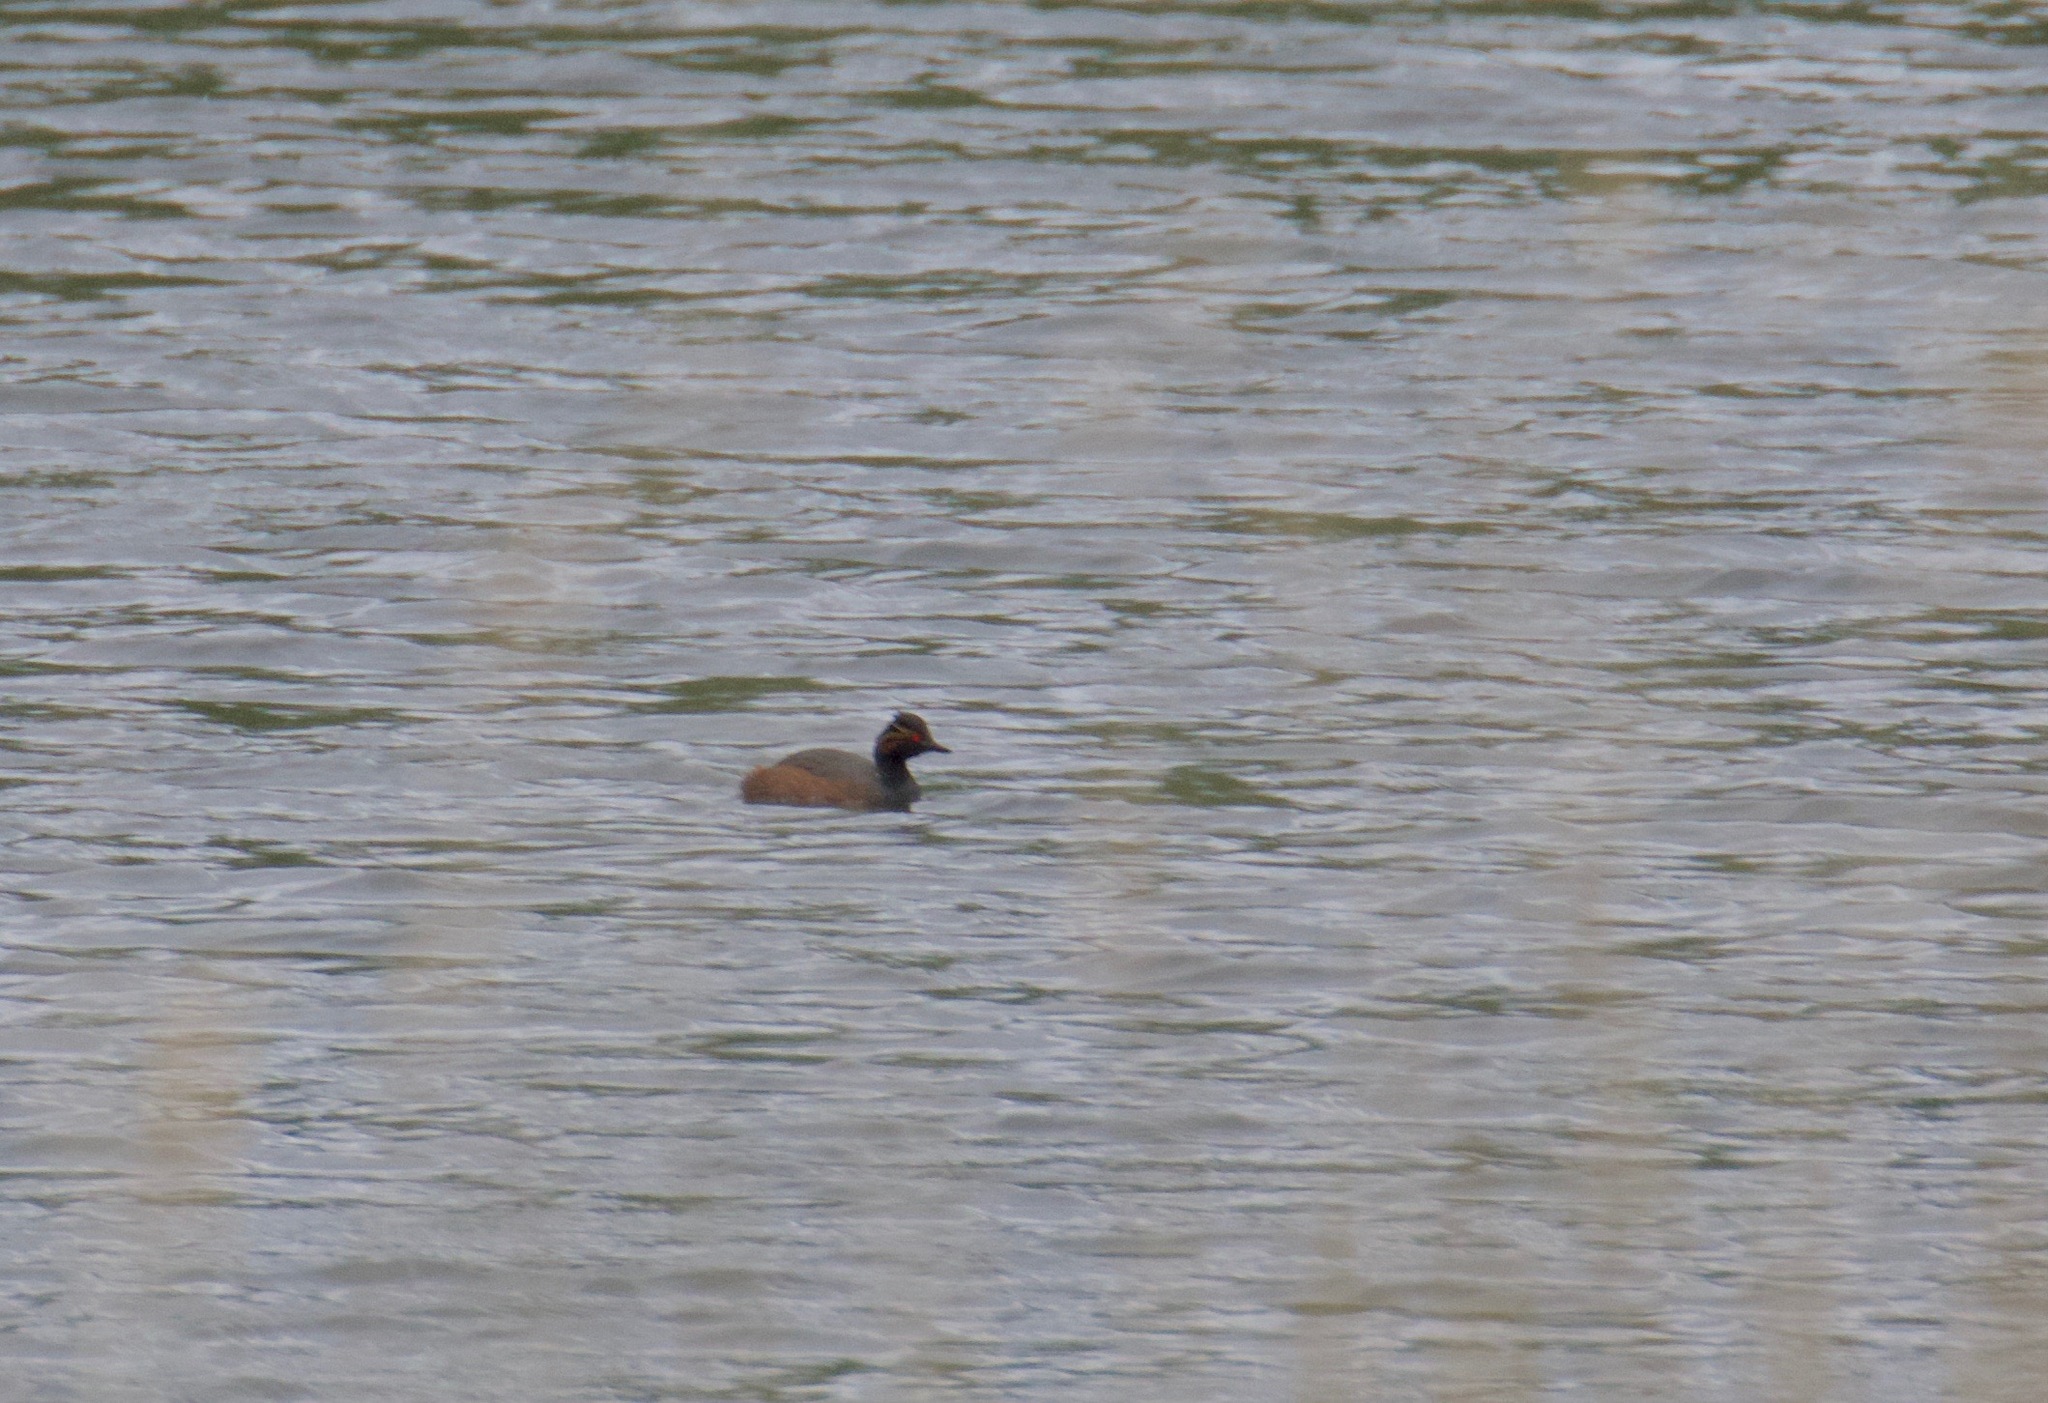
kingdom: Animalia
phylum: Chordata
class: Aves
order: Podicipediformes
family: Podicipedidae
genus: Podiceps
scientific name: Podiceps nigricollis
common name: Black-necked grebe
